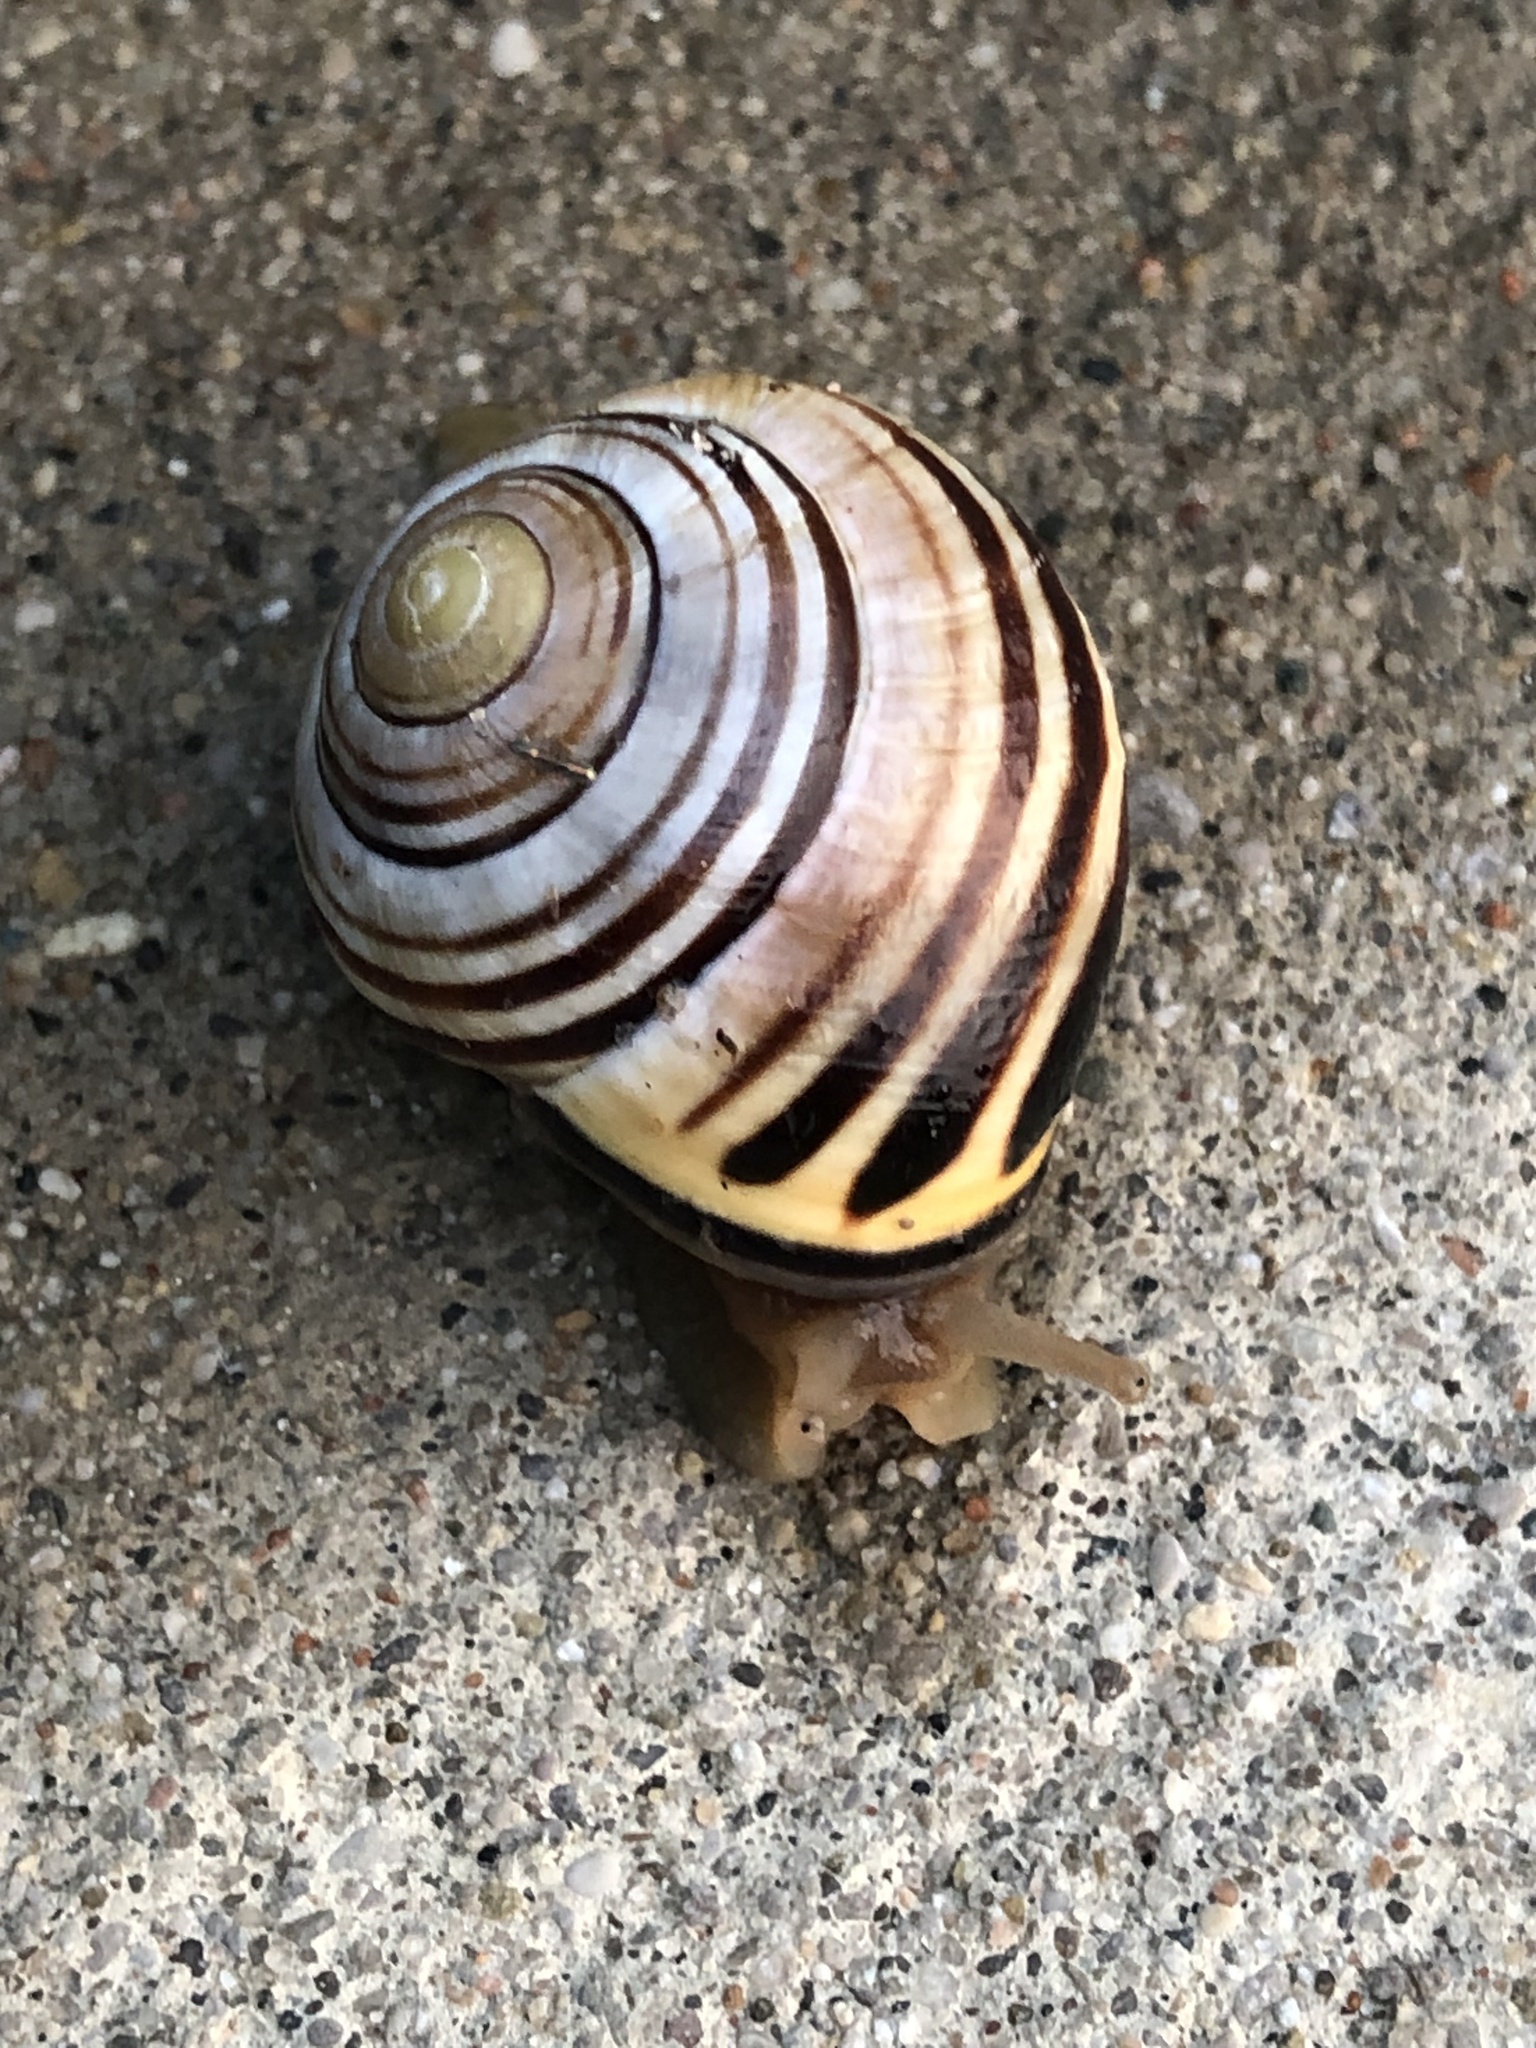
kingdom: Animalia
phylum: Mollusca
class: Gastropoda
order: Stylommatophora
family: Helicidae
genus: Cepaea
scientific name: Cepaea nemoralis
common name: Grovesnail
